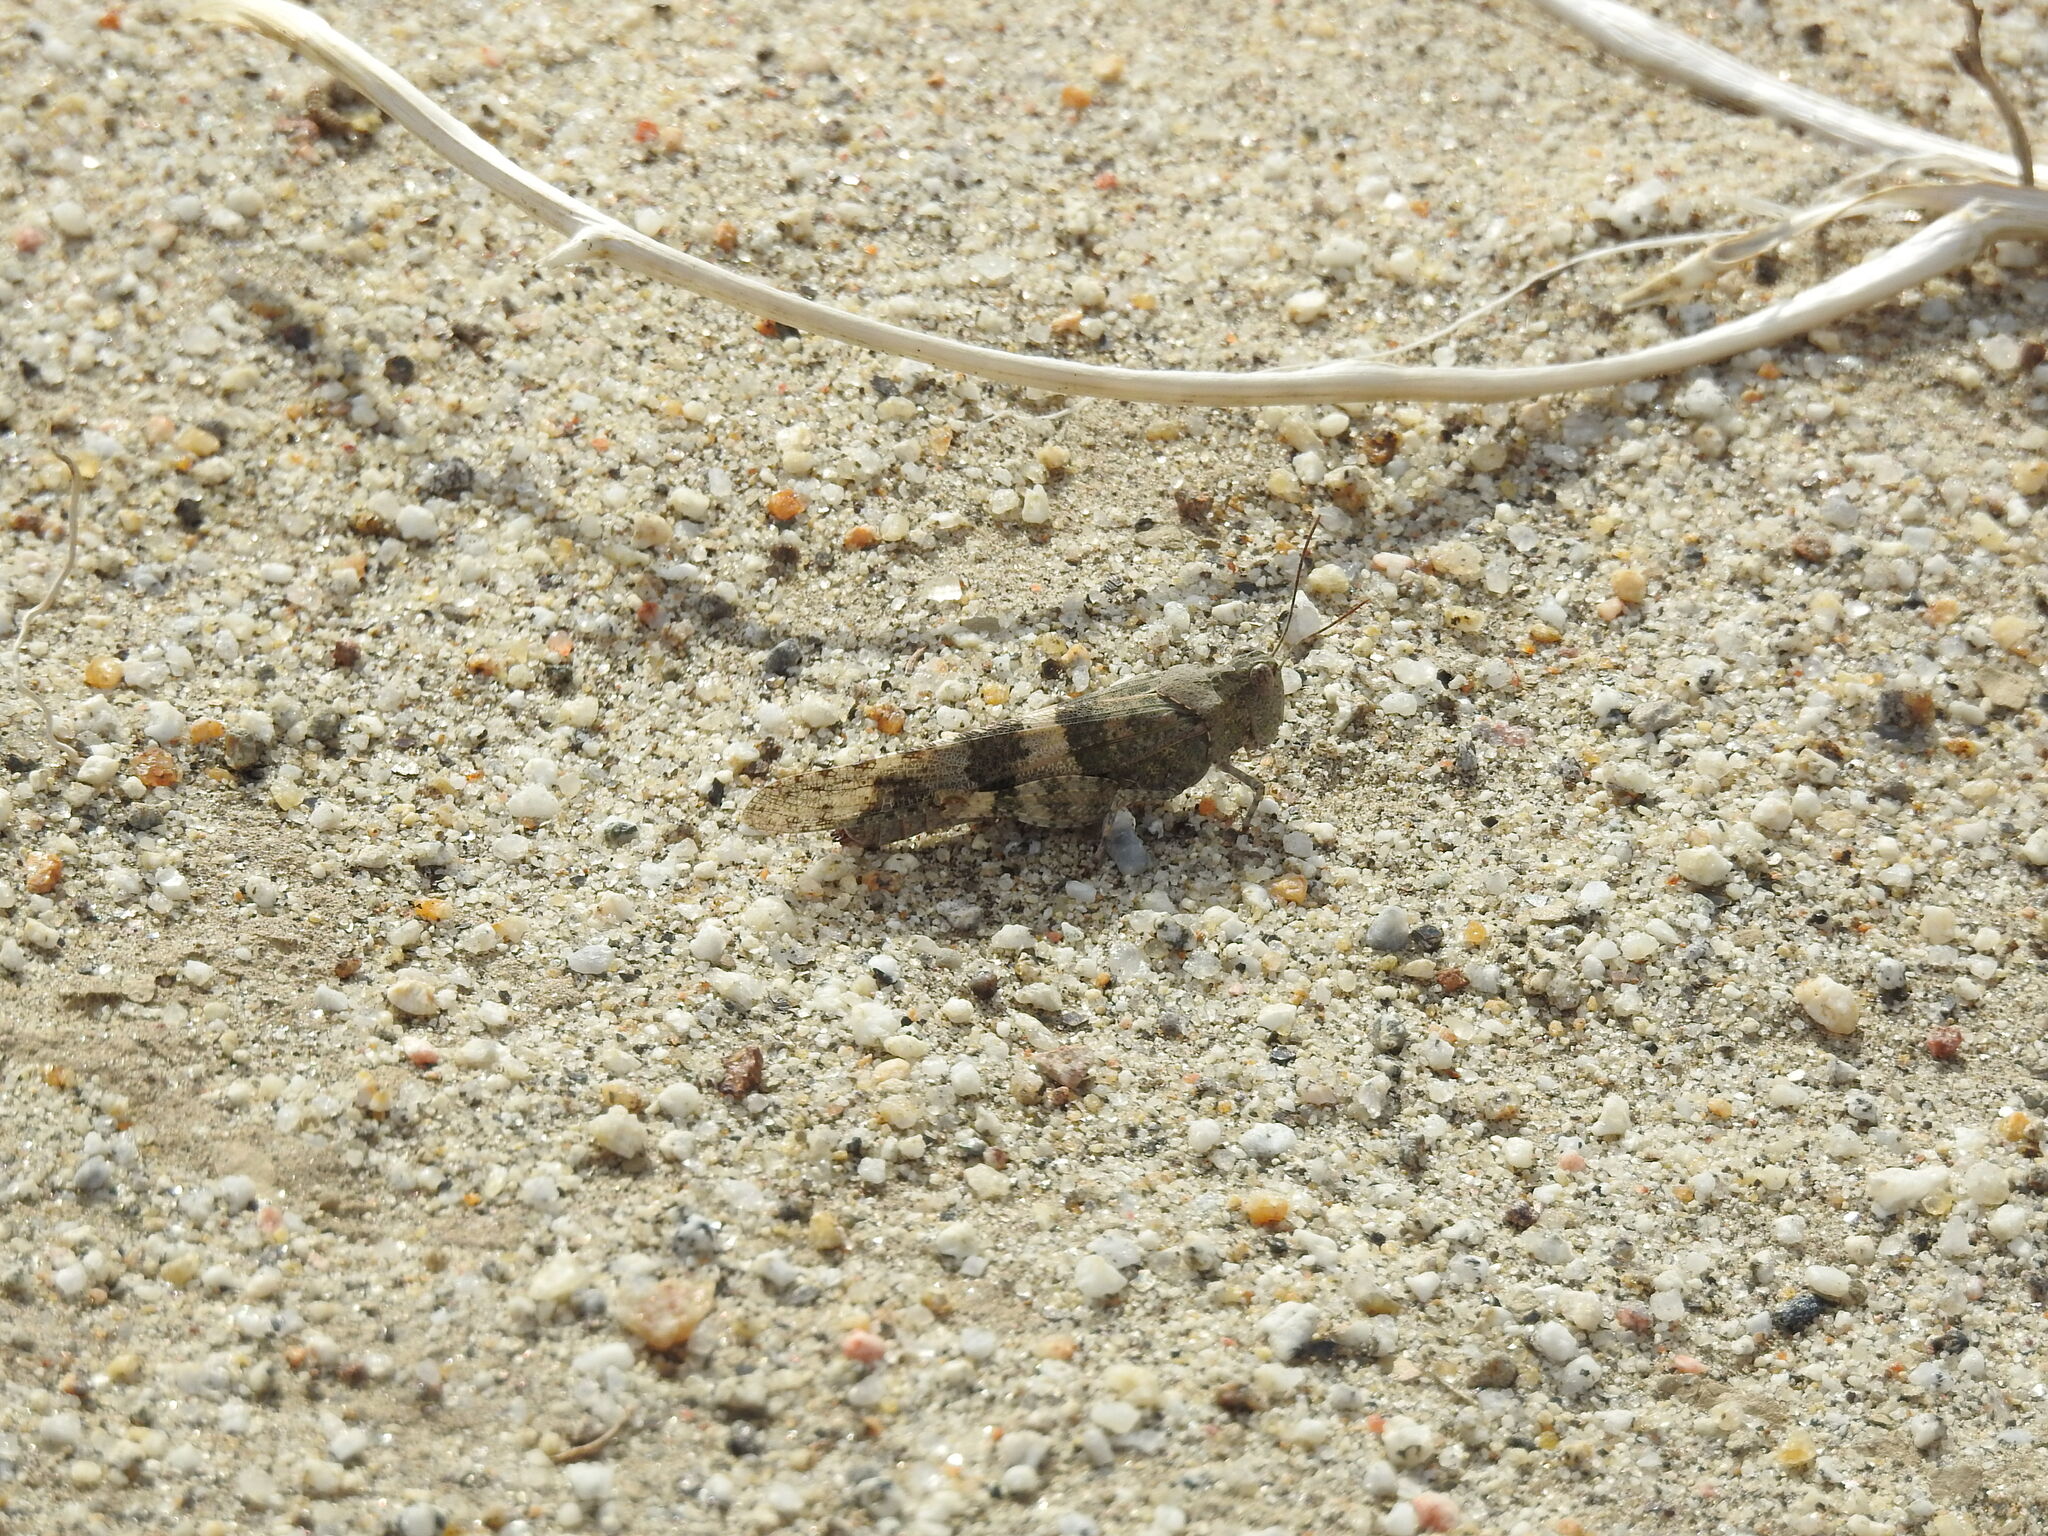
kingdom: Animalia
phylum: Arthropoda
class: Insecta
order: Orthoptera
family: Acrididae
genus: Trimerotropis
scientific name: Trimerotropis pallidipennis
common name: Pallid-winged grasshopper
